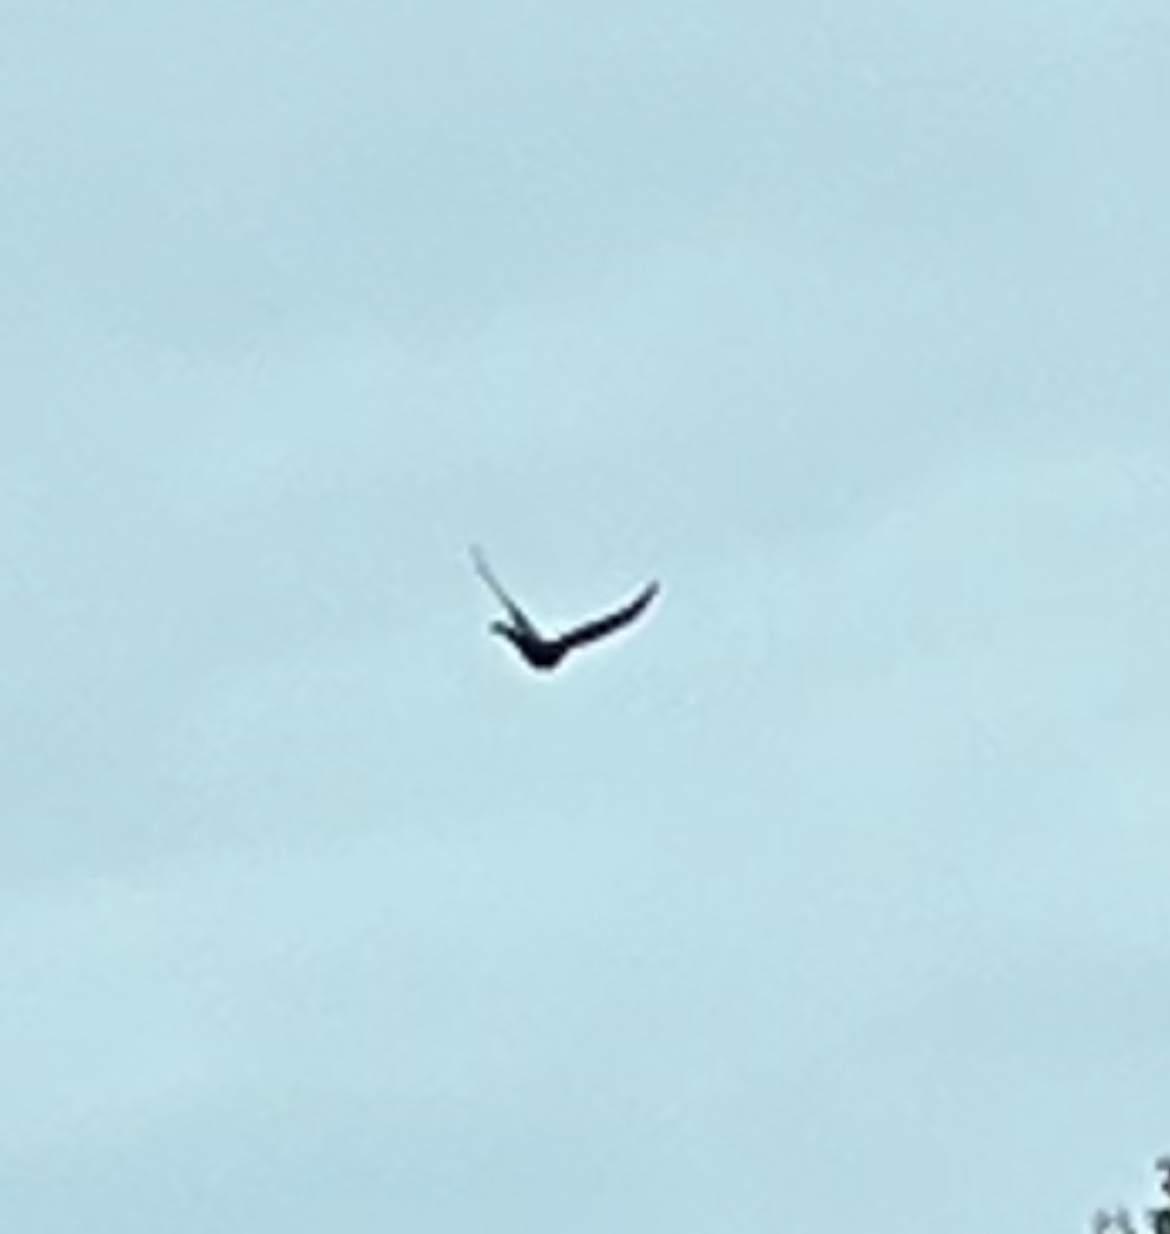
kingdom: Animalia
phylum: Chordata
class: Aves
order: Columbiformes
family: Columbidae
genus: Columba
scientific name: Columba livia
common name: Rock pigeon
